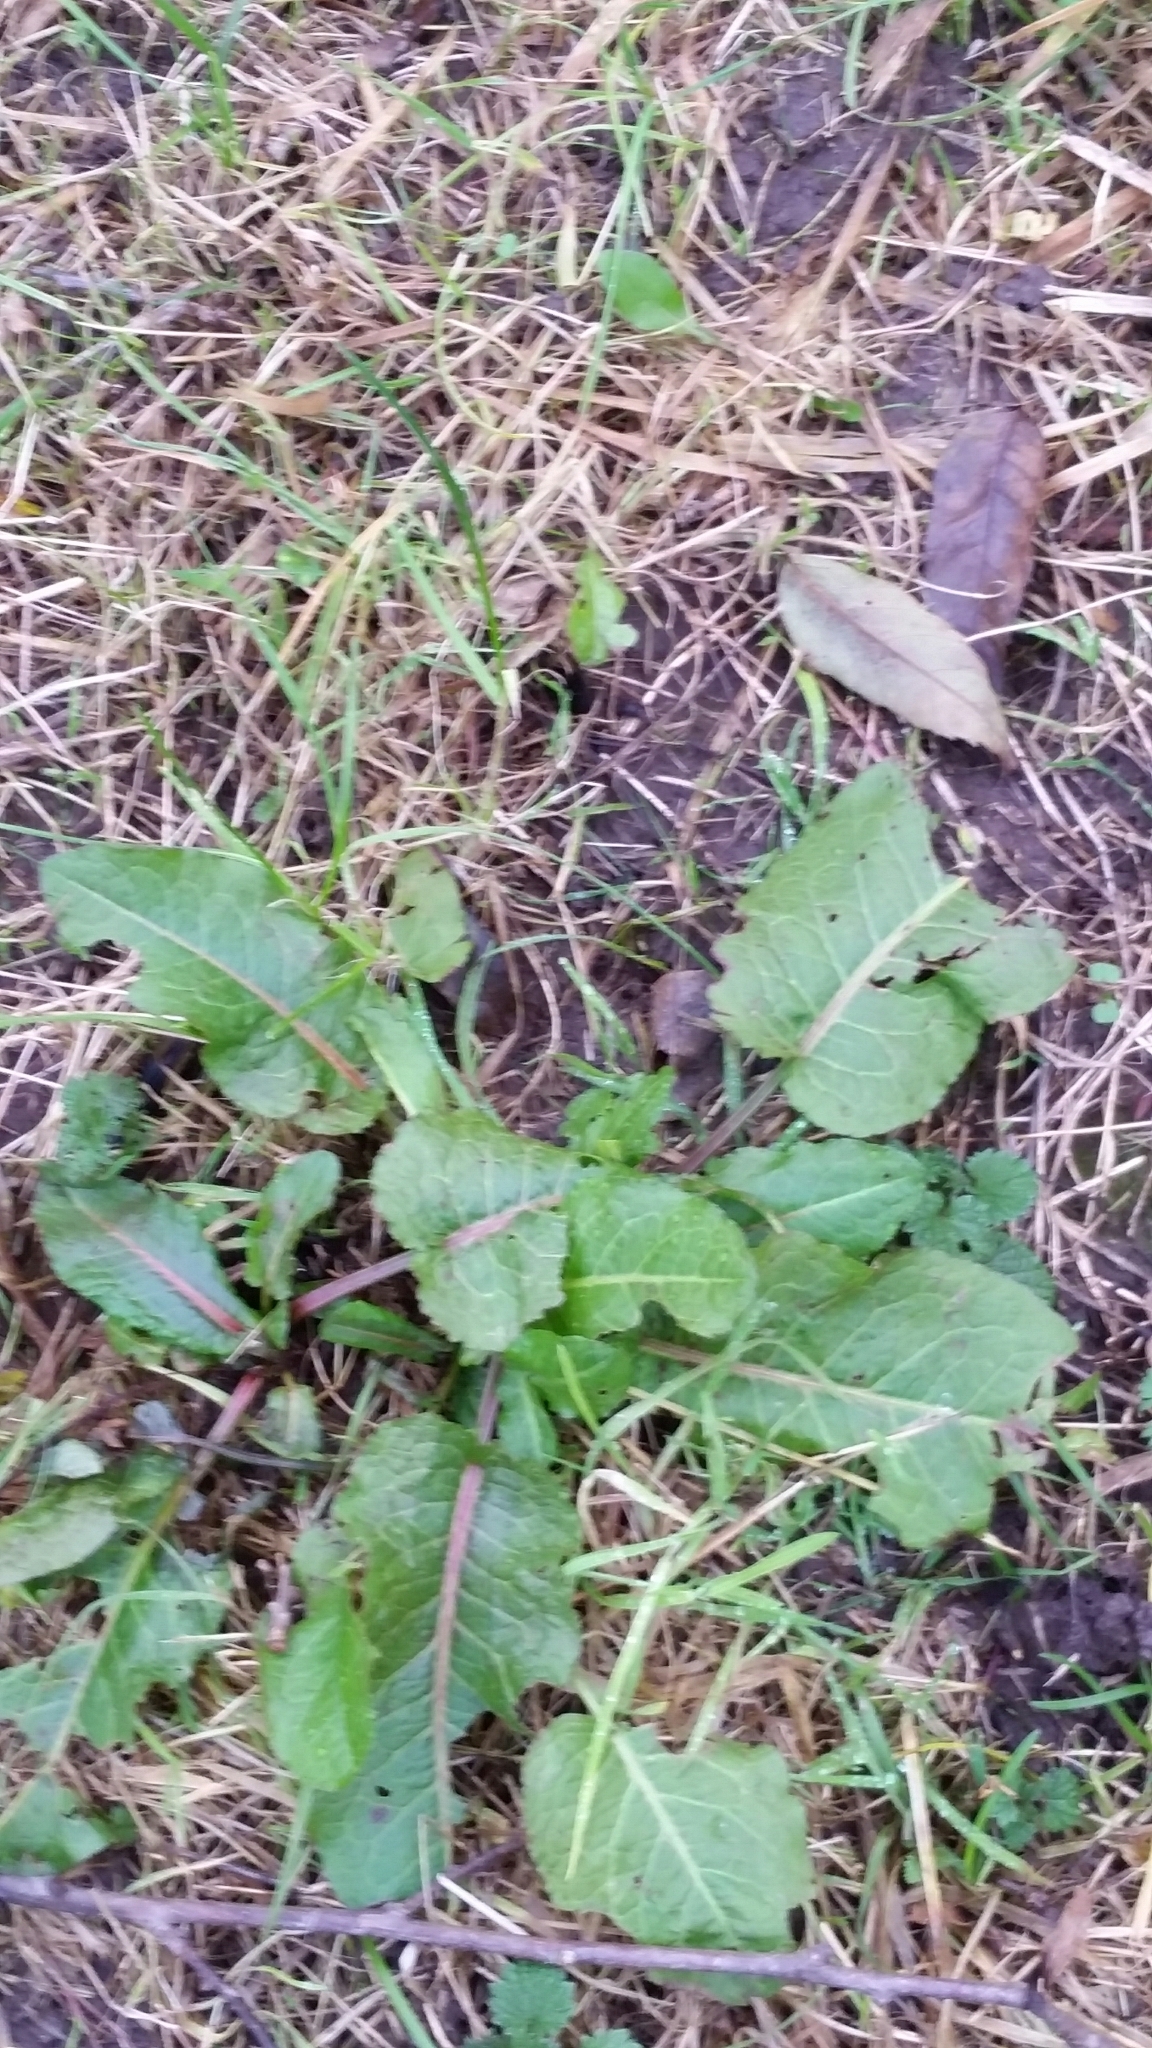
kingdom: Plantae
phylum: Tracheophyta
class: Magnoliopsida
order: Caryophyllales
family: Polygonaceae
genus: Rumex
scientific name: Rumex obtusifolius
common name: Bitter dock
